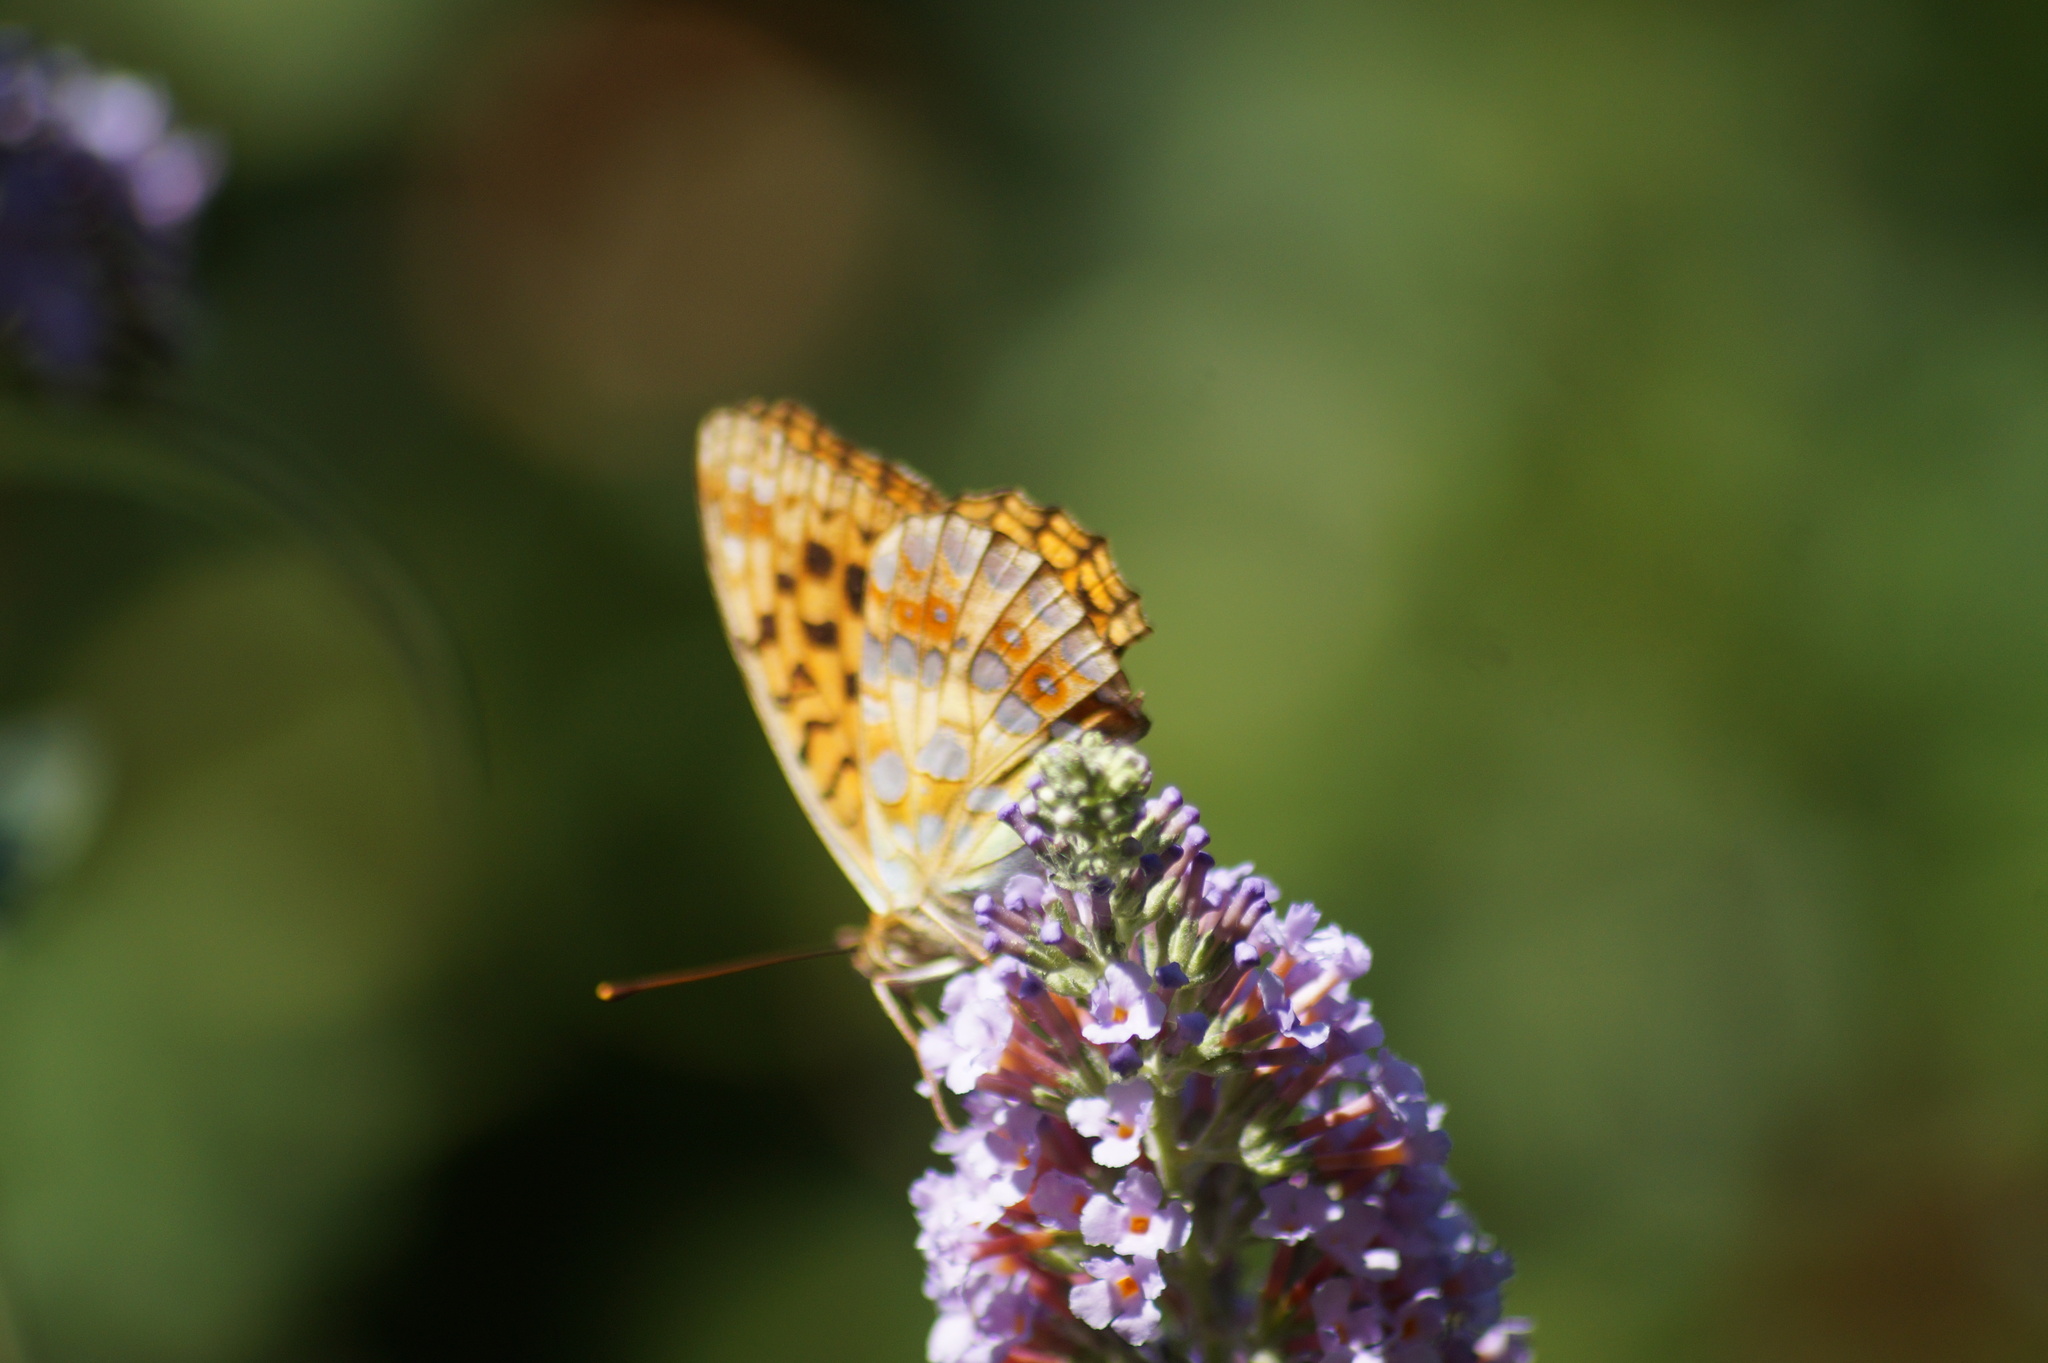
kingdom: Animalia
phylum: Arthropoda
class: Insecta
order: Lepidoptera
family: Nymphalidae
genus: Fabriciana
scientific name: Fabriciana adippe
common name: High brown fritillary
